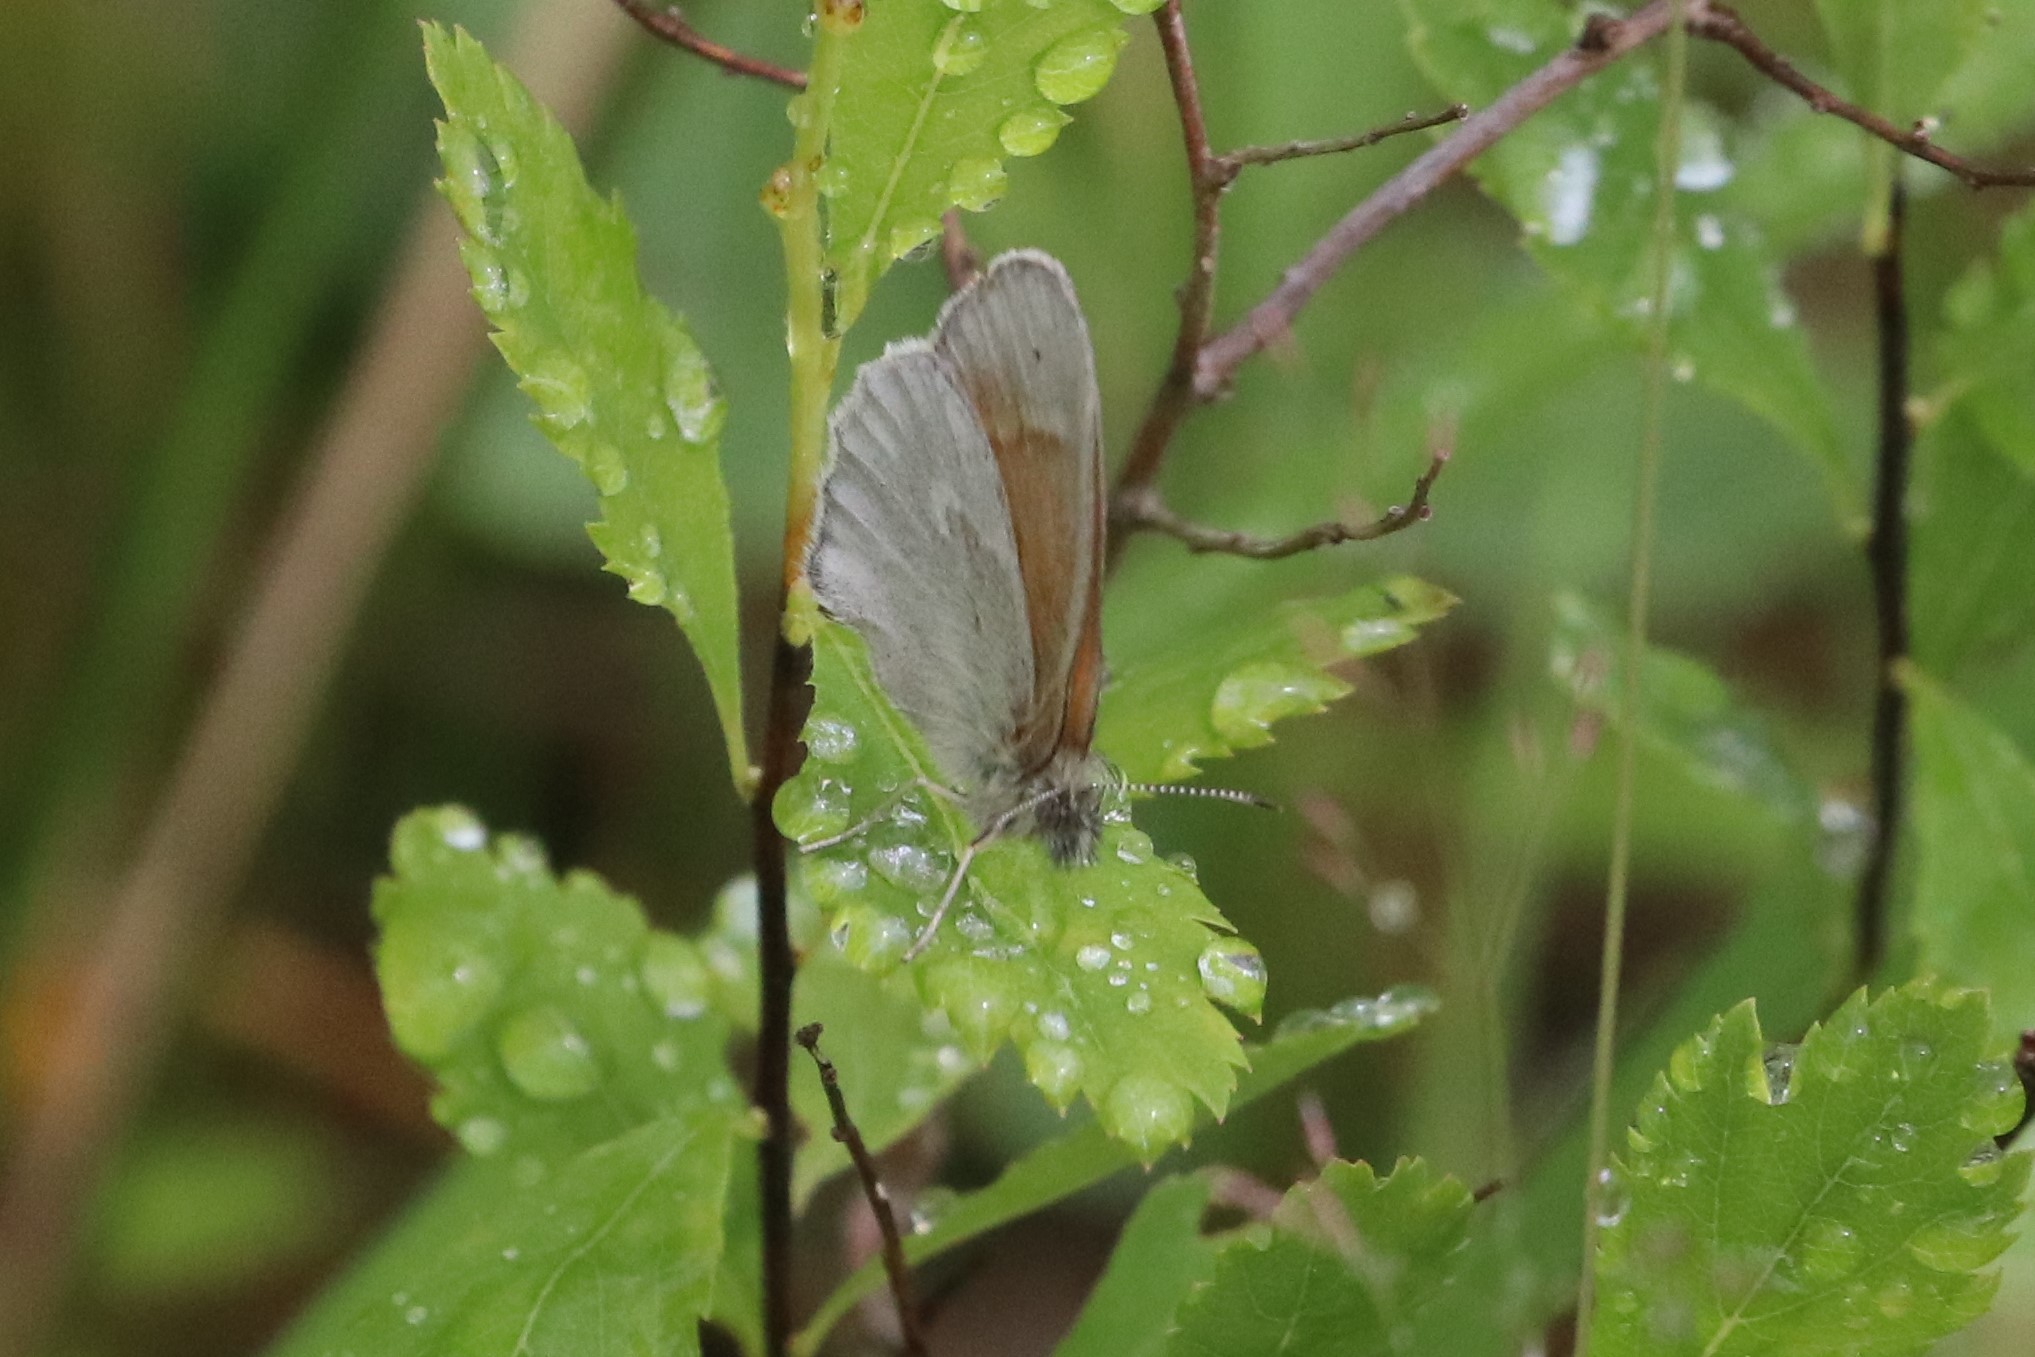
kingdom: Animalia
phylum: Arthropoda
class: Insecta
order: Lepidoptera
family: Nymphalidae
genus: Coenonympha
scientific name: Coenonympha california
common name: Common ringlet
